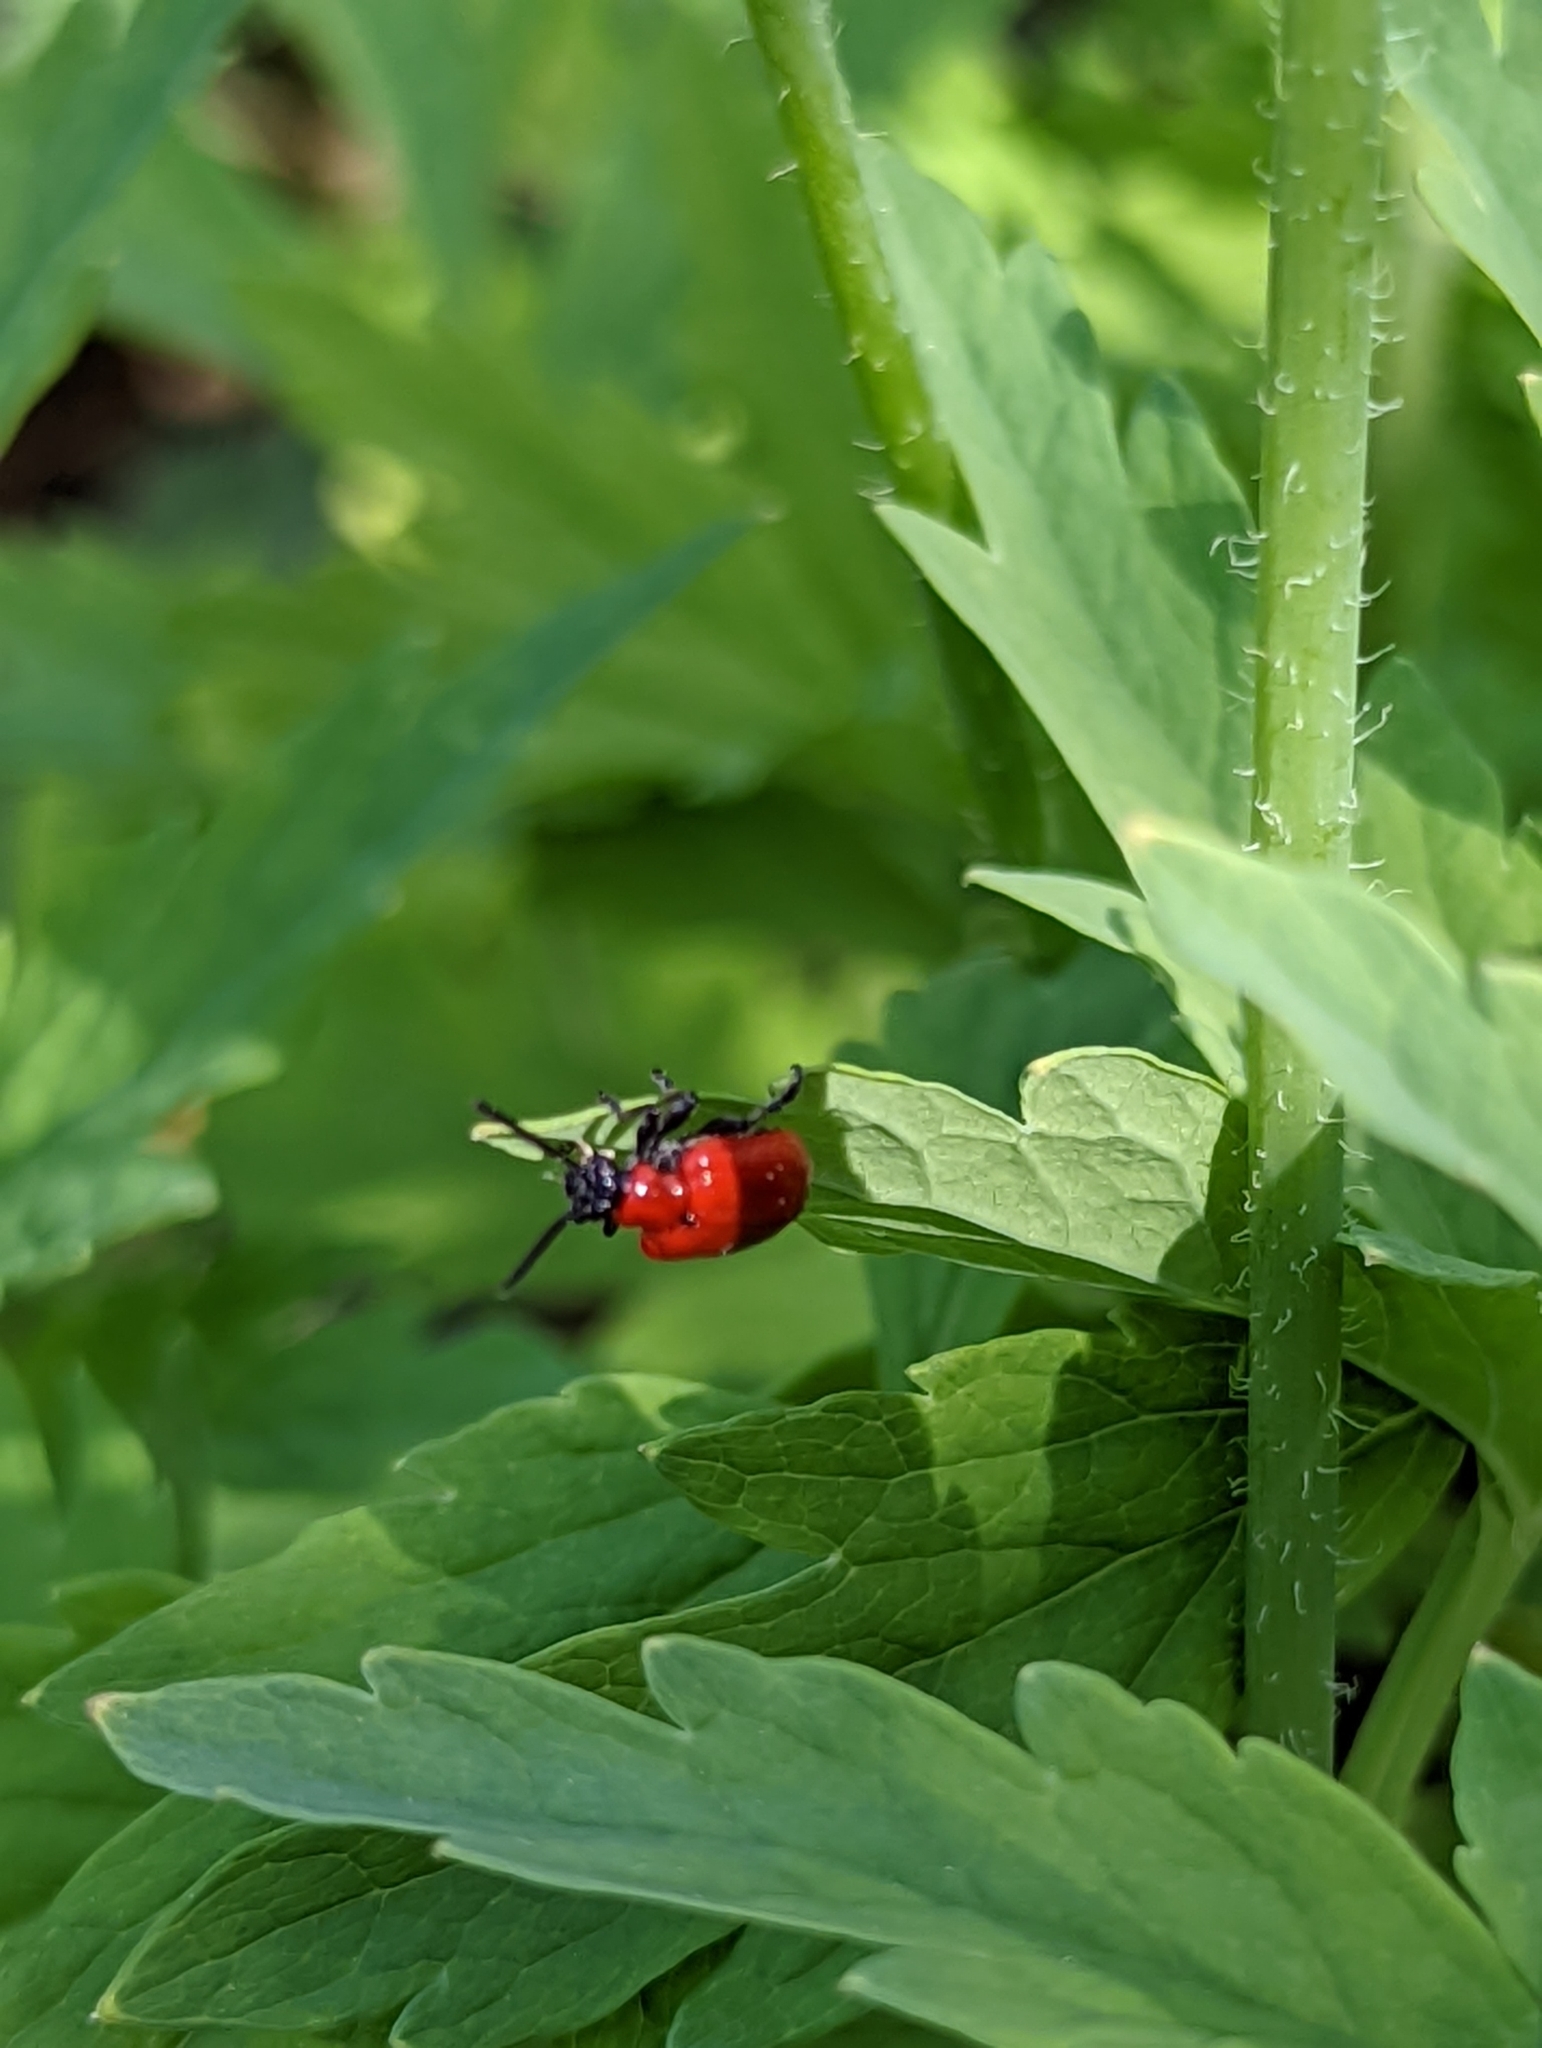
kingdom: Animalia
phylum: Arthropoda
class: Insecta
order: Coleoptera
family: Chrysomelidae
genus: Lilioceris
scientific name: Lilioceris lilii
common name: Lily beetle
